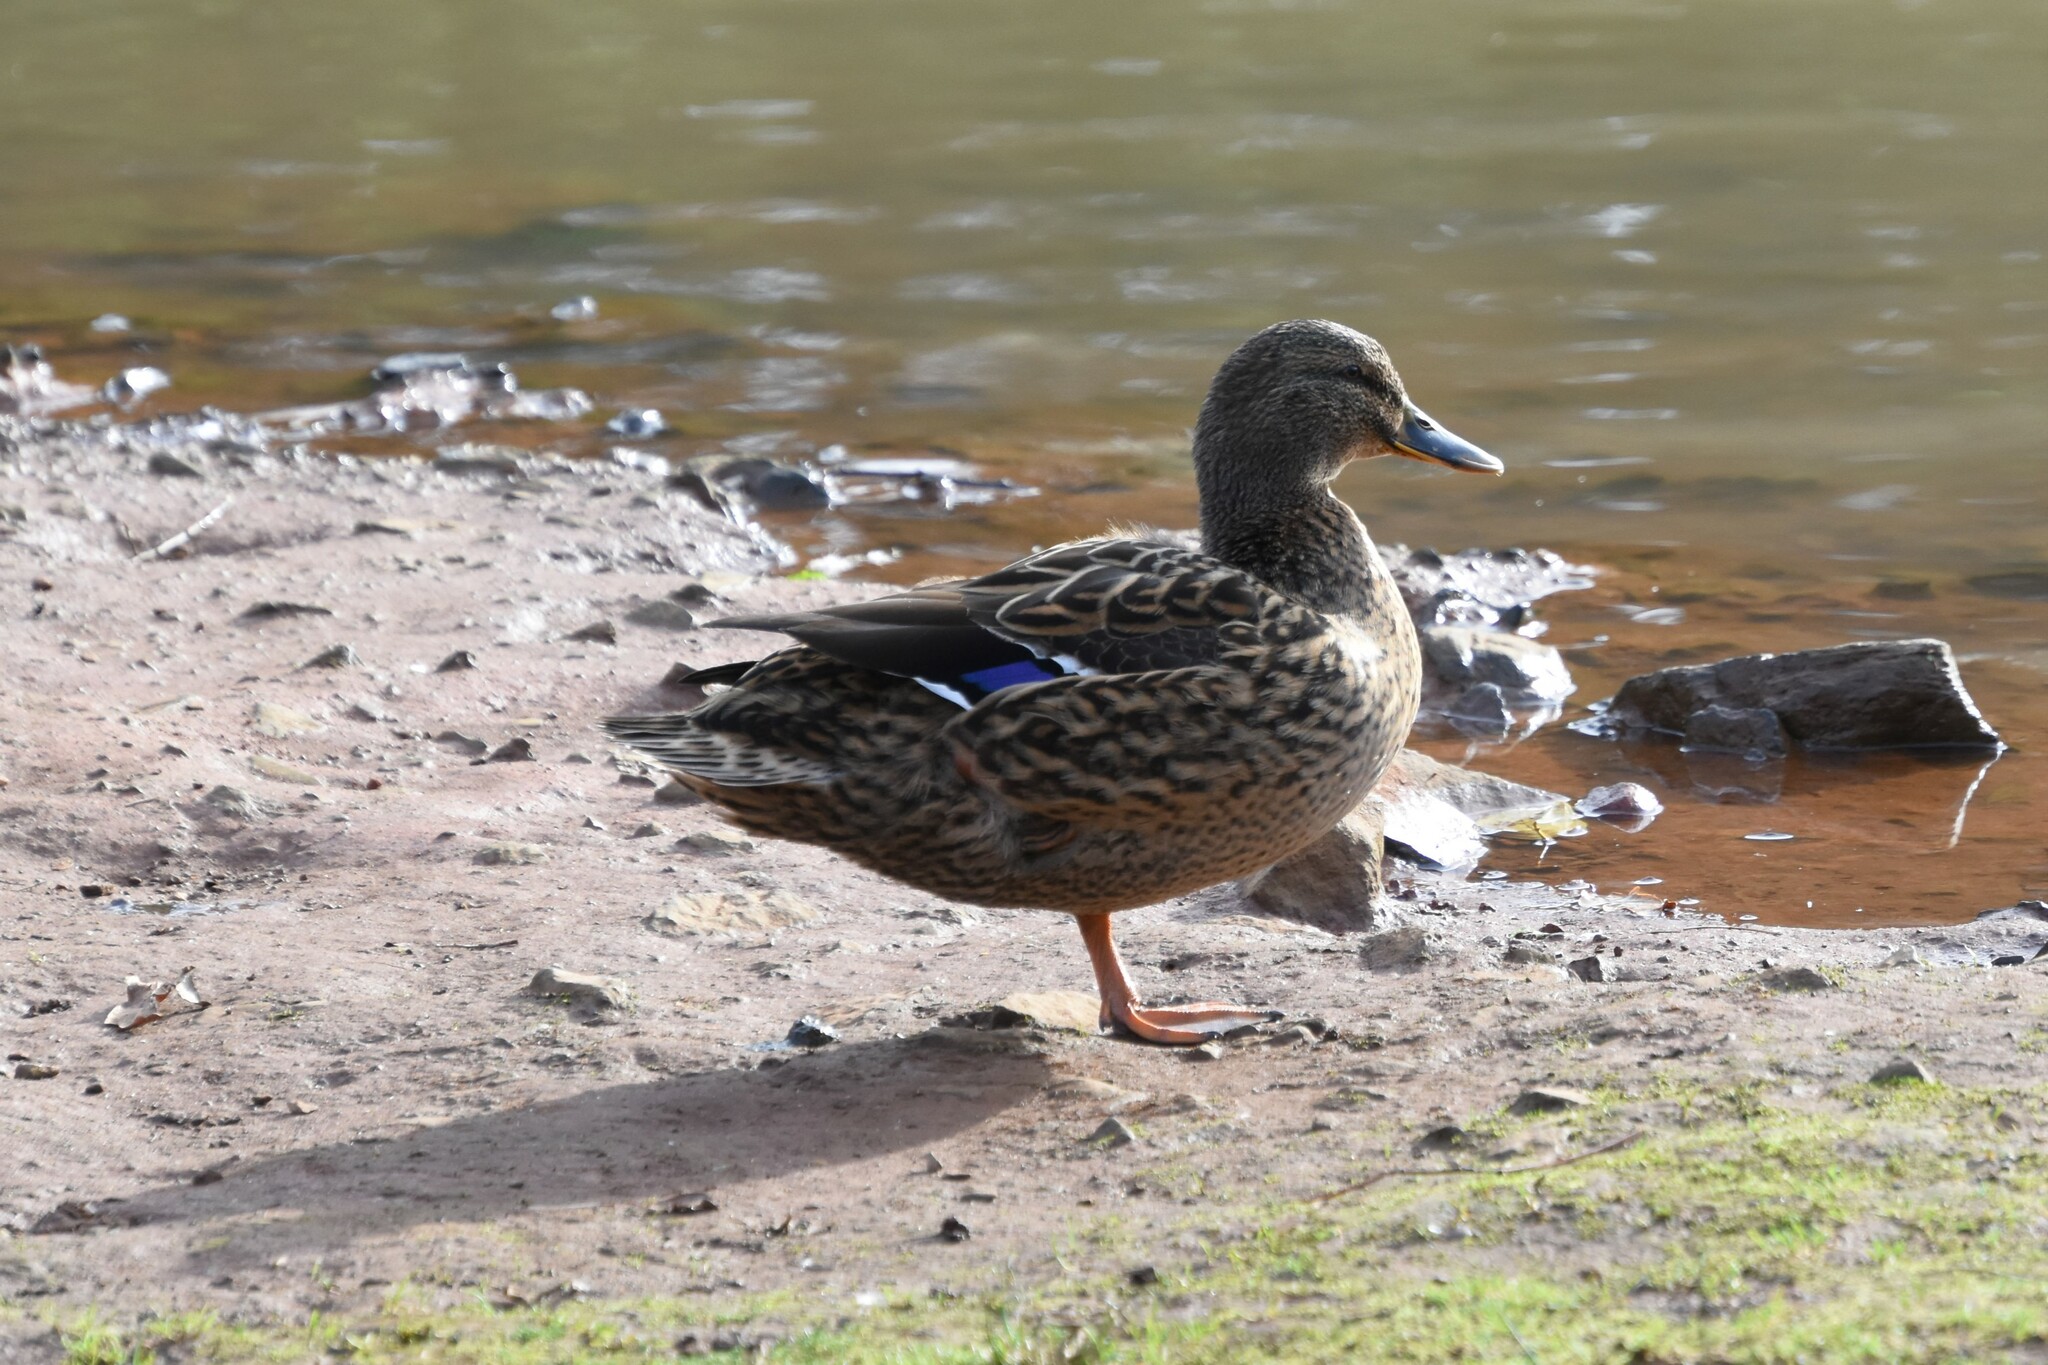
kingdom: Animalia
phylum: Chordata
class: Aves
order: Anseriformes
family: Anatidae
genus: Anas
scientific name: Anas platyrhynchos
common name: Mallard
